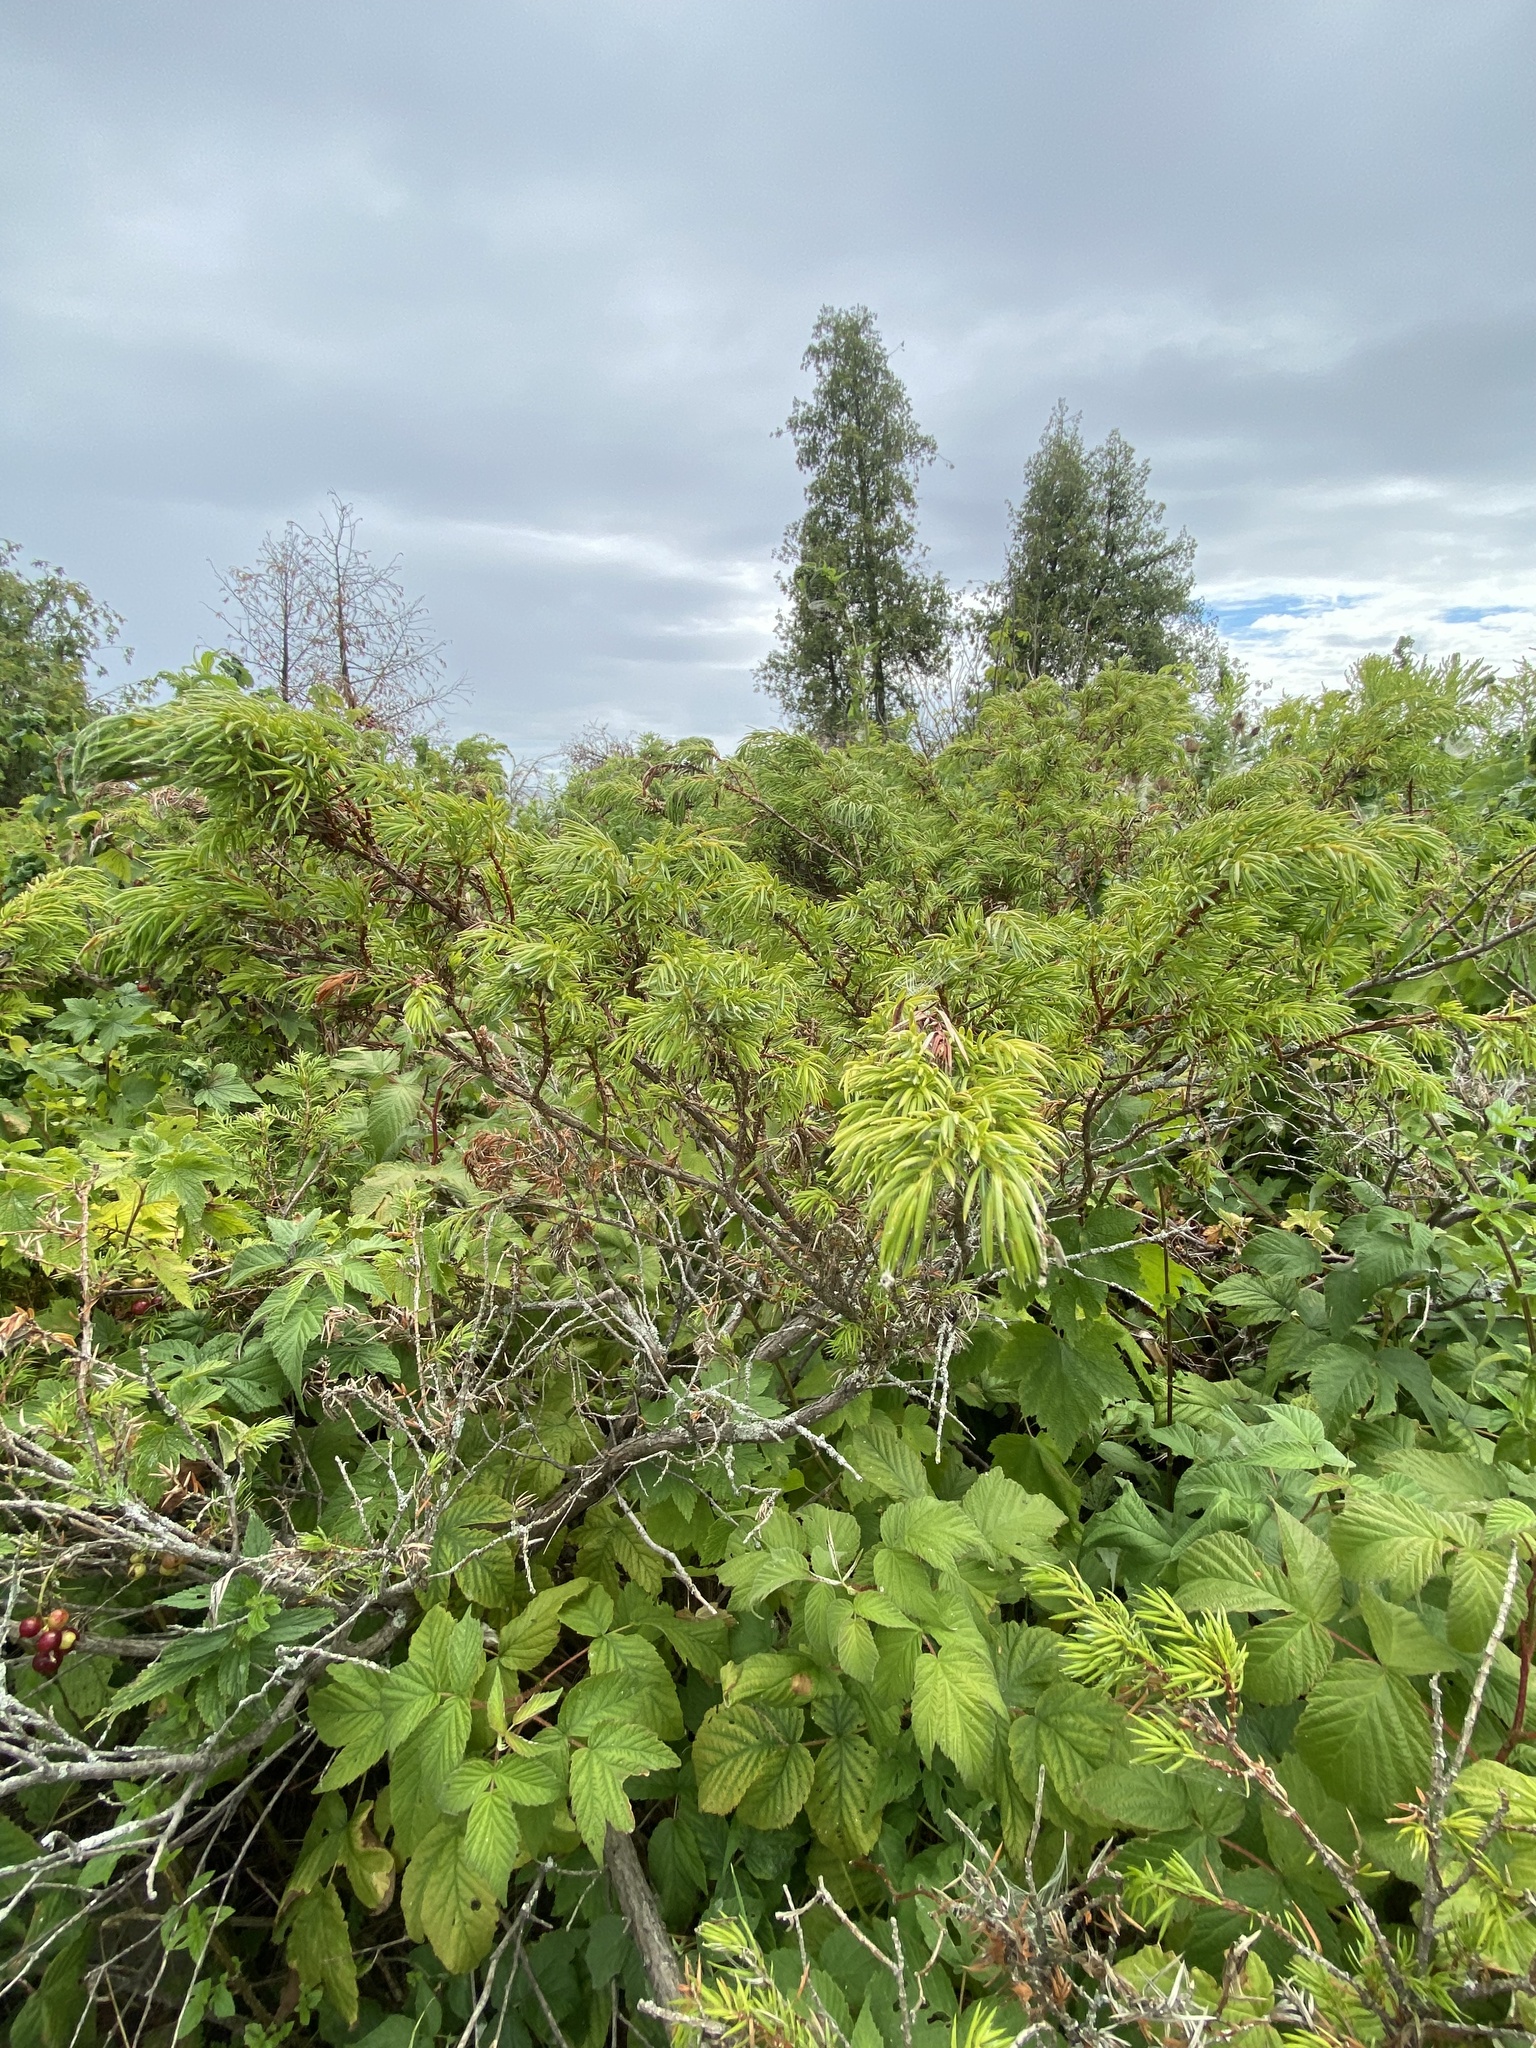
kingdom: Plantae
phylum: Tracheophyta
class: Pinopsida
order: Pinales
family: Cupressaceae
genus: Juniperus
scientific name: Juniperus communis
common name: Common juniper
